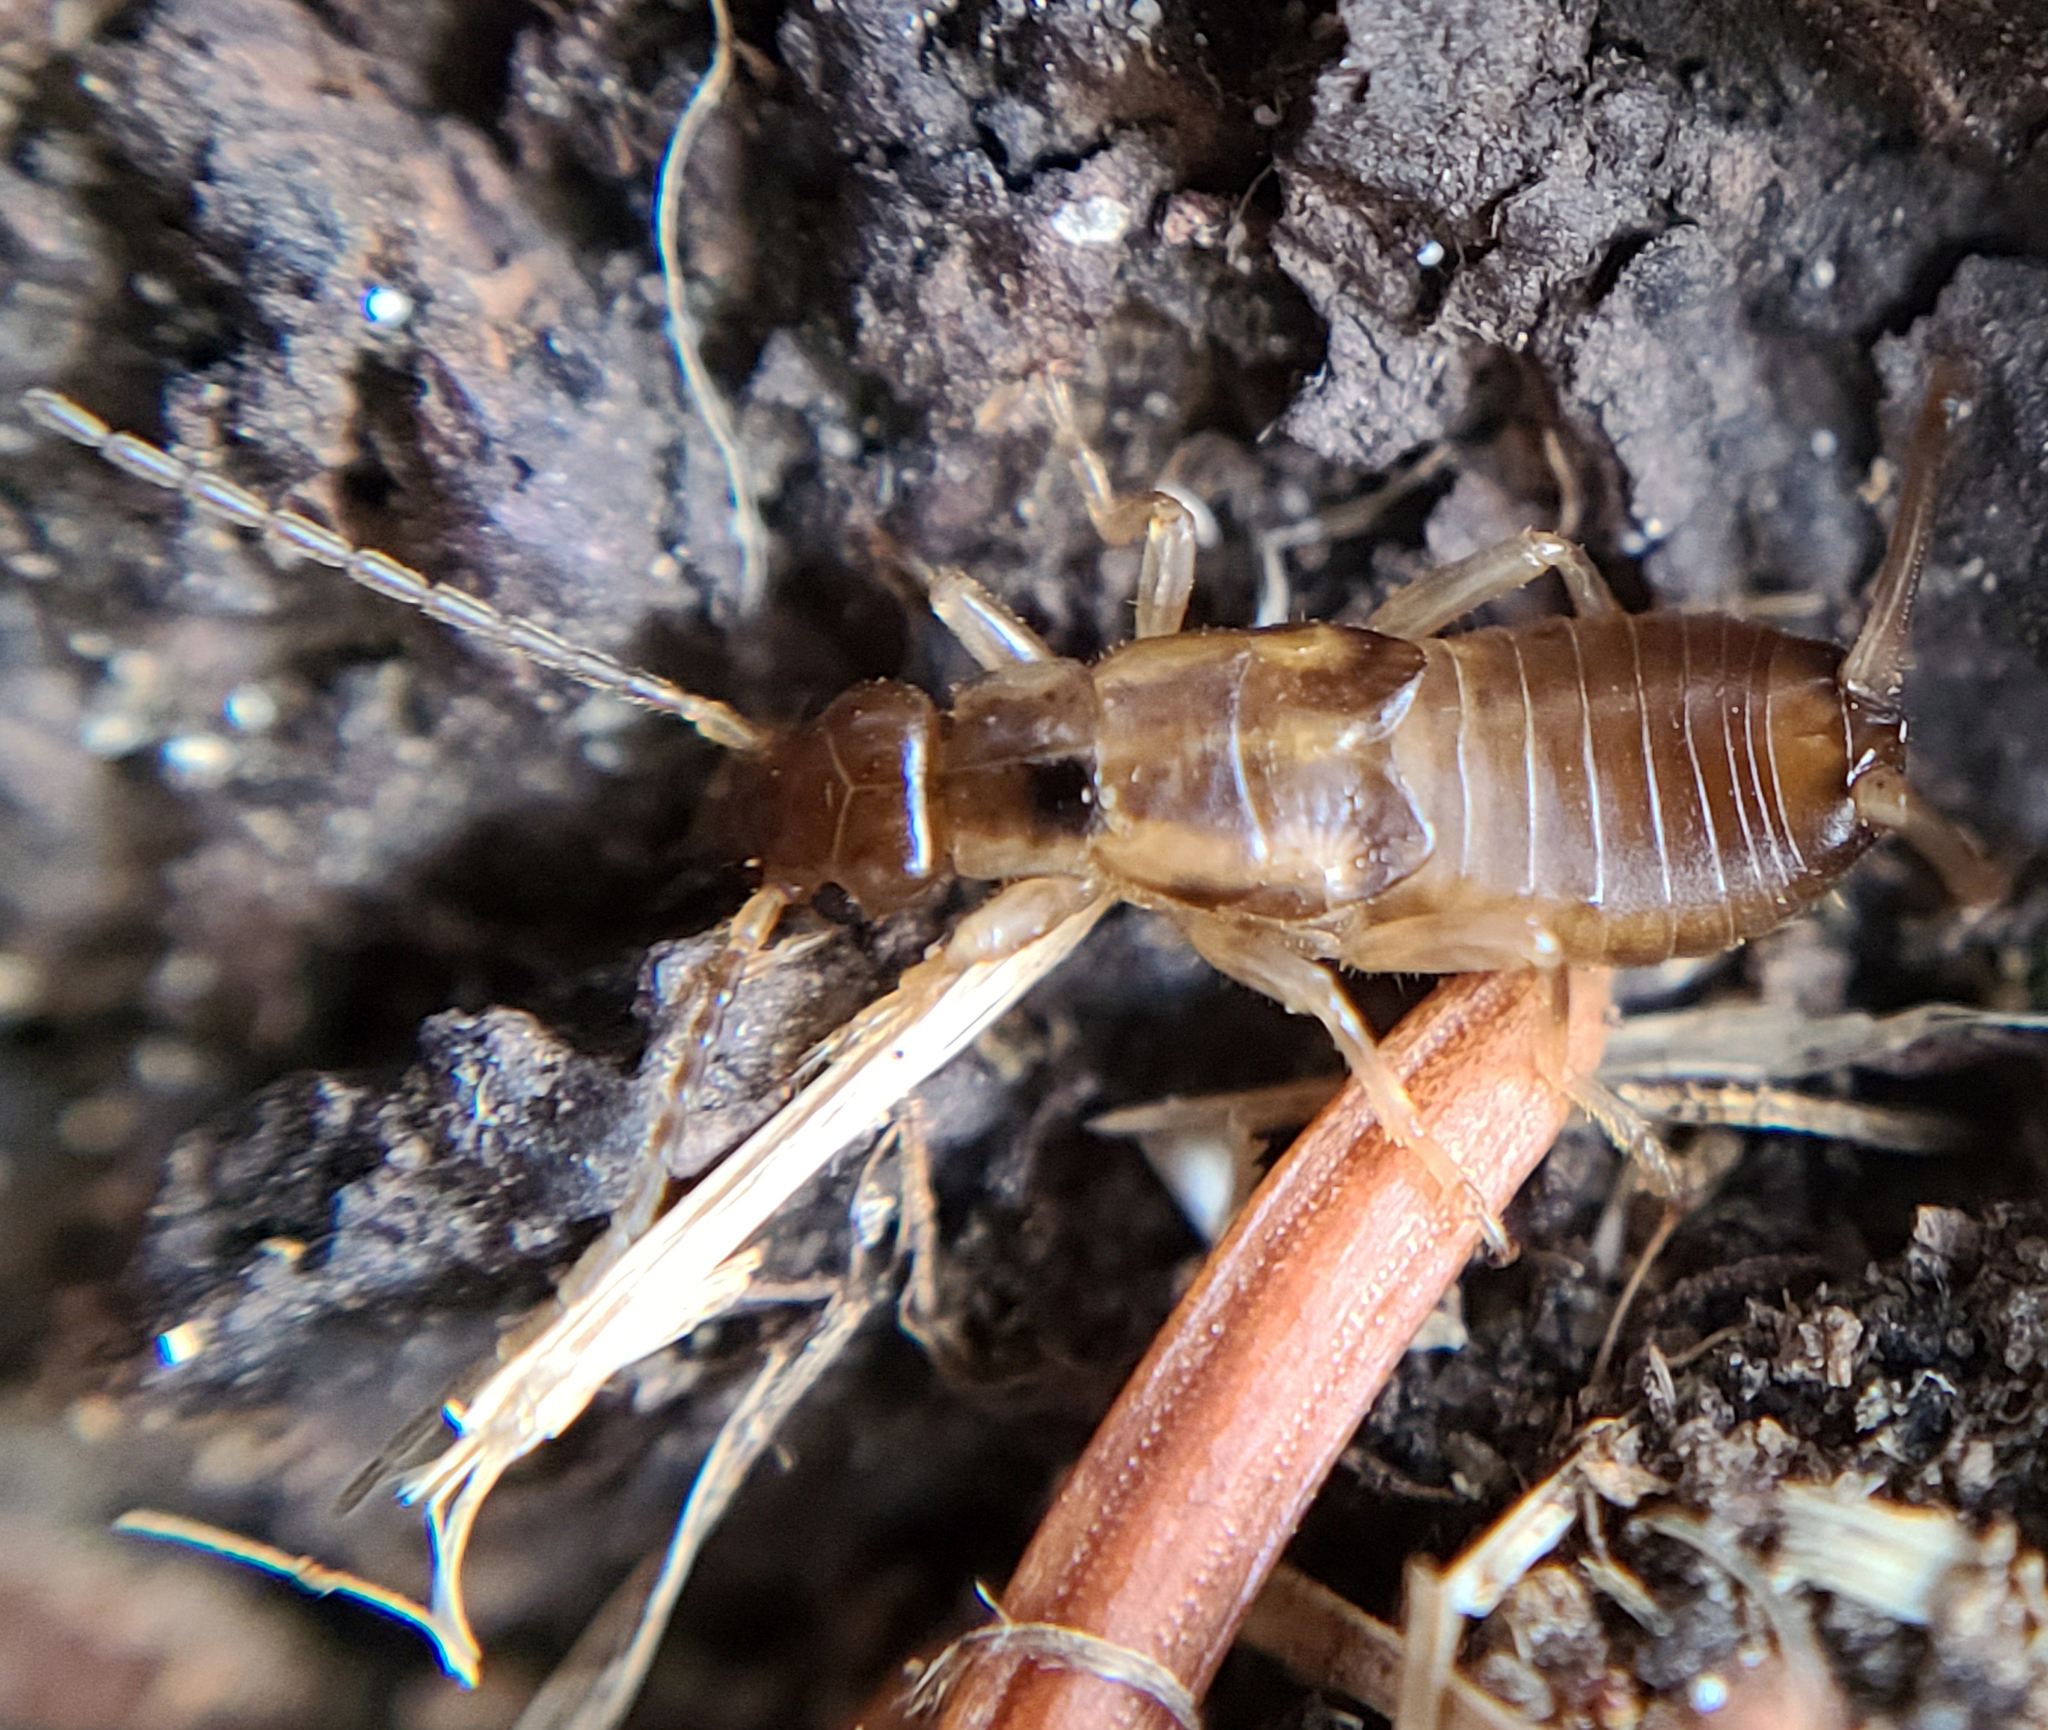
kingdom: Animalia
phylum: Arthropoda
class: Insecta
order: Dermaptera
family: Forficulidae
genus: Forficula
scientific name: Forficula
